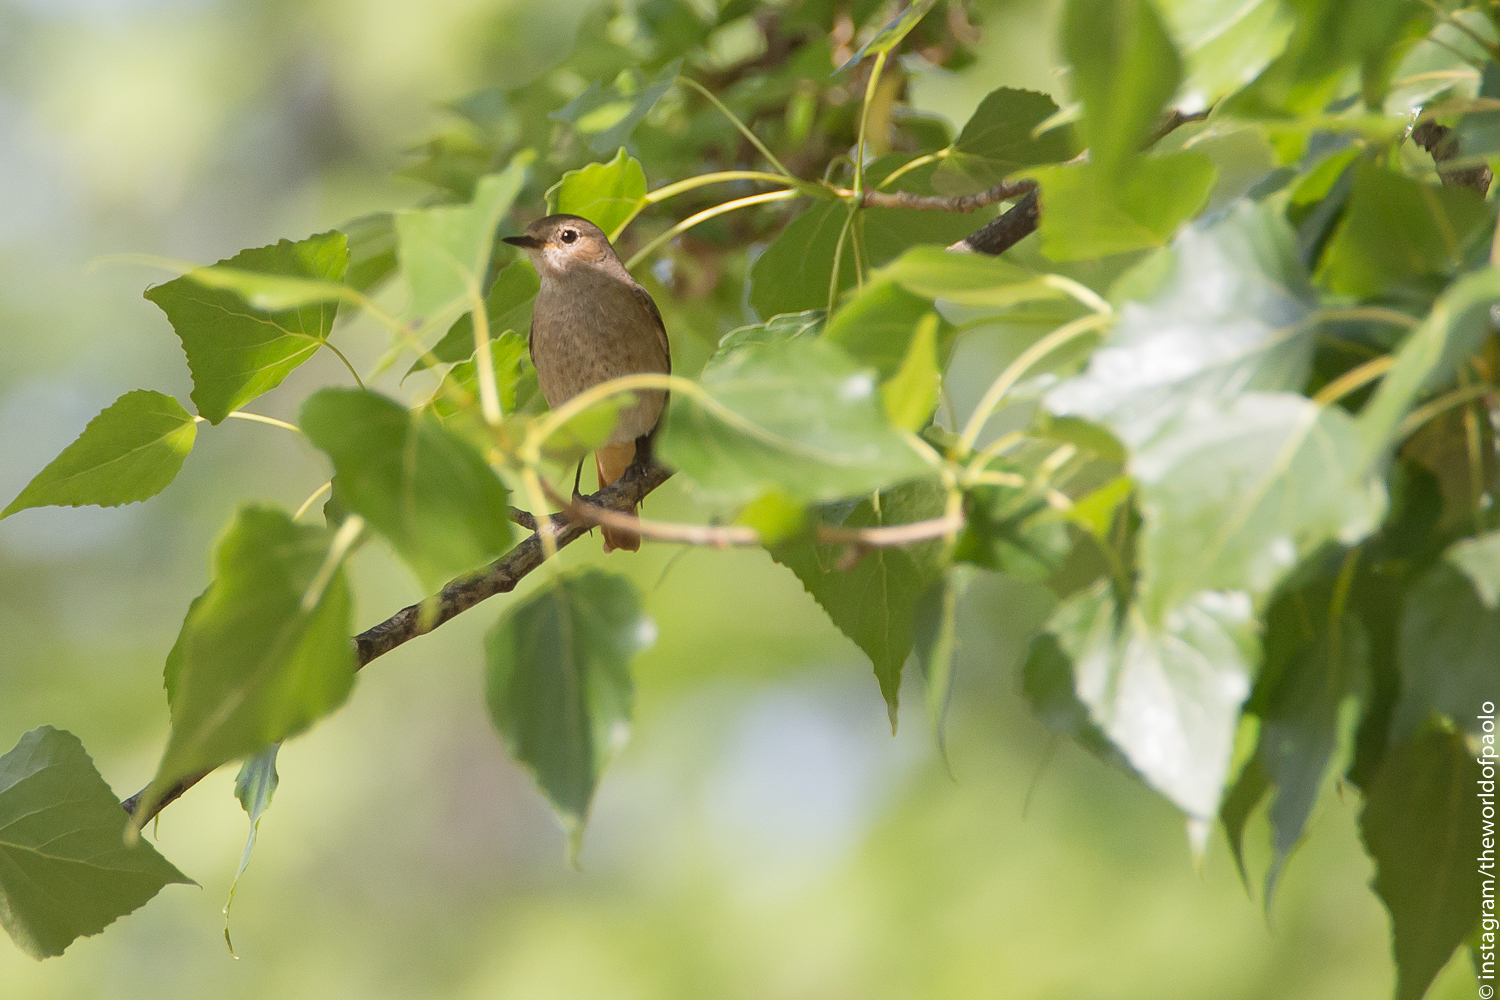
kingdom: Animalia
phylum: Chordata
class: Aves
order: Passeriformes
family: Muscicapidae
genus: Phoenicurus
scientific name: Phoenicurus phoenicurus
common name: Common redstart
